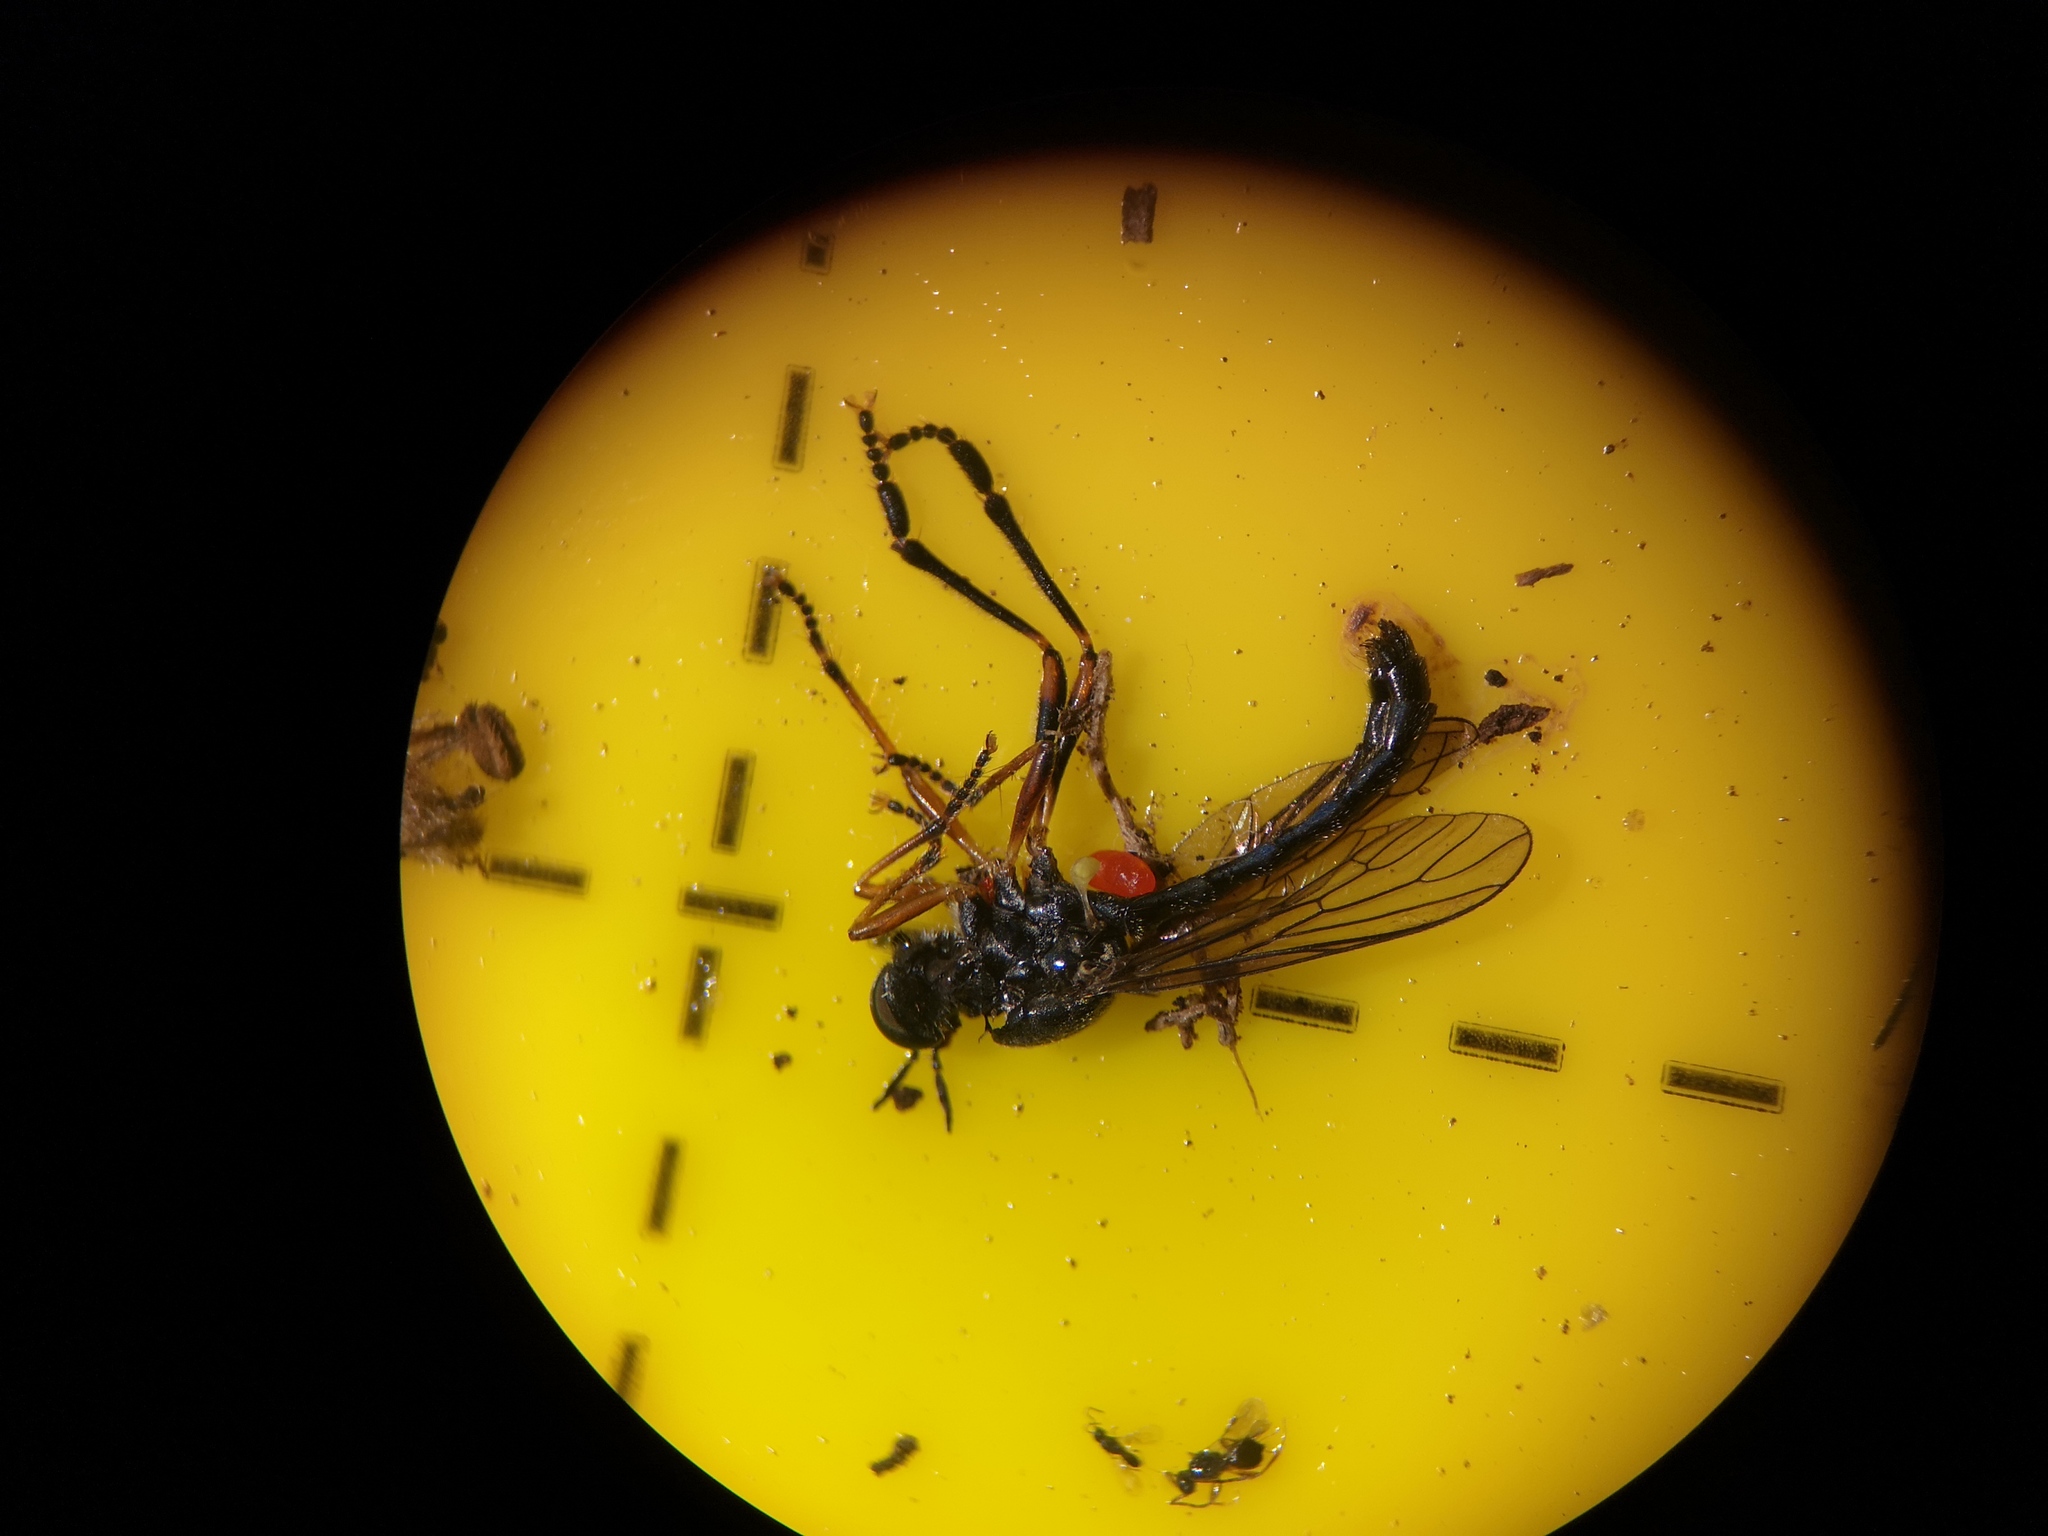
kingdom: Animalia
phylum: Arthropoda
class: Insecta
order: Diptera
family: Asilidae
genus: Dioctria
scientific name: Dioctria hyalipennis
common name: Stripe-legged robberfly
